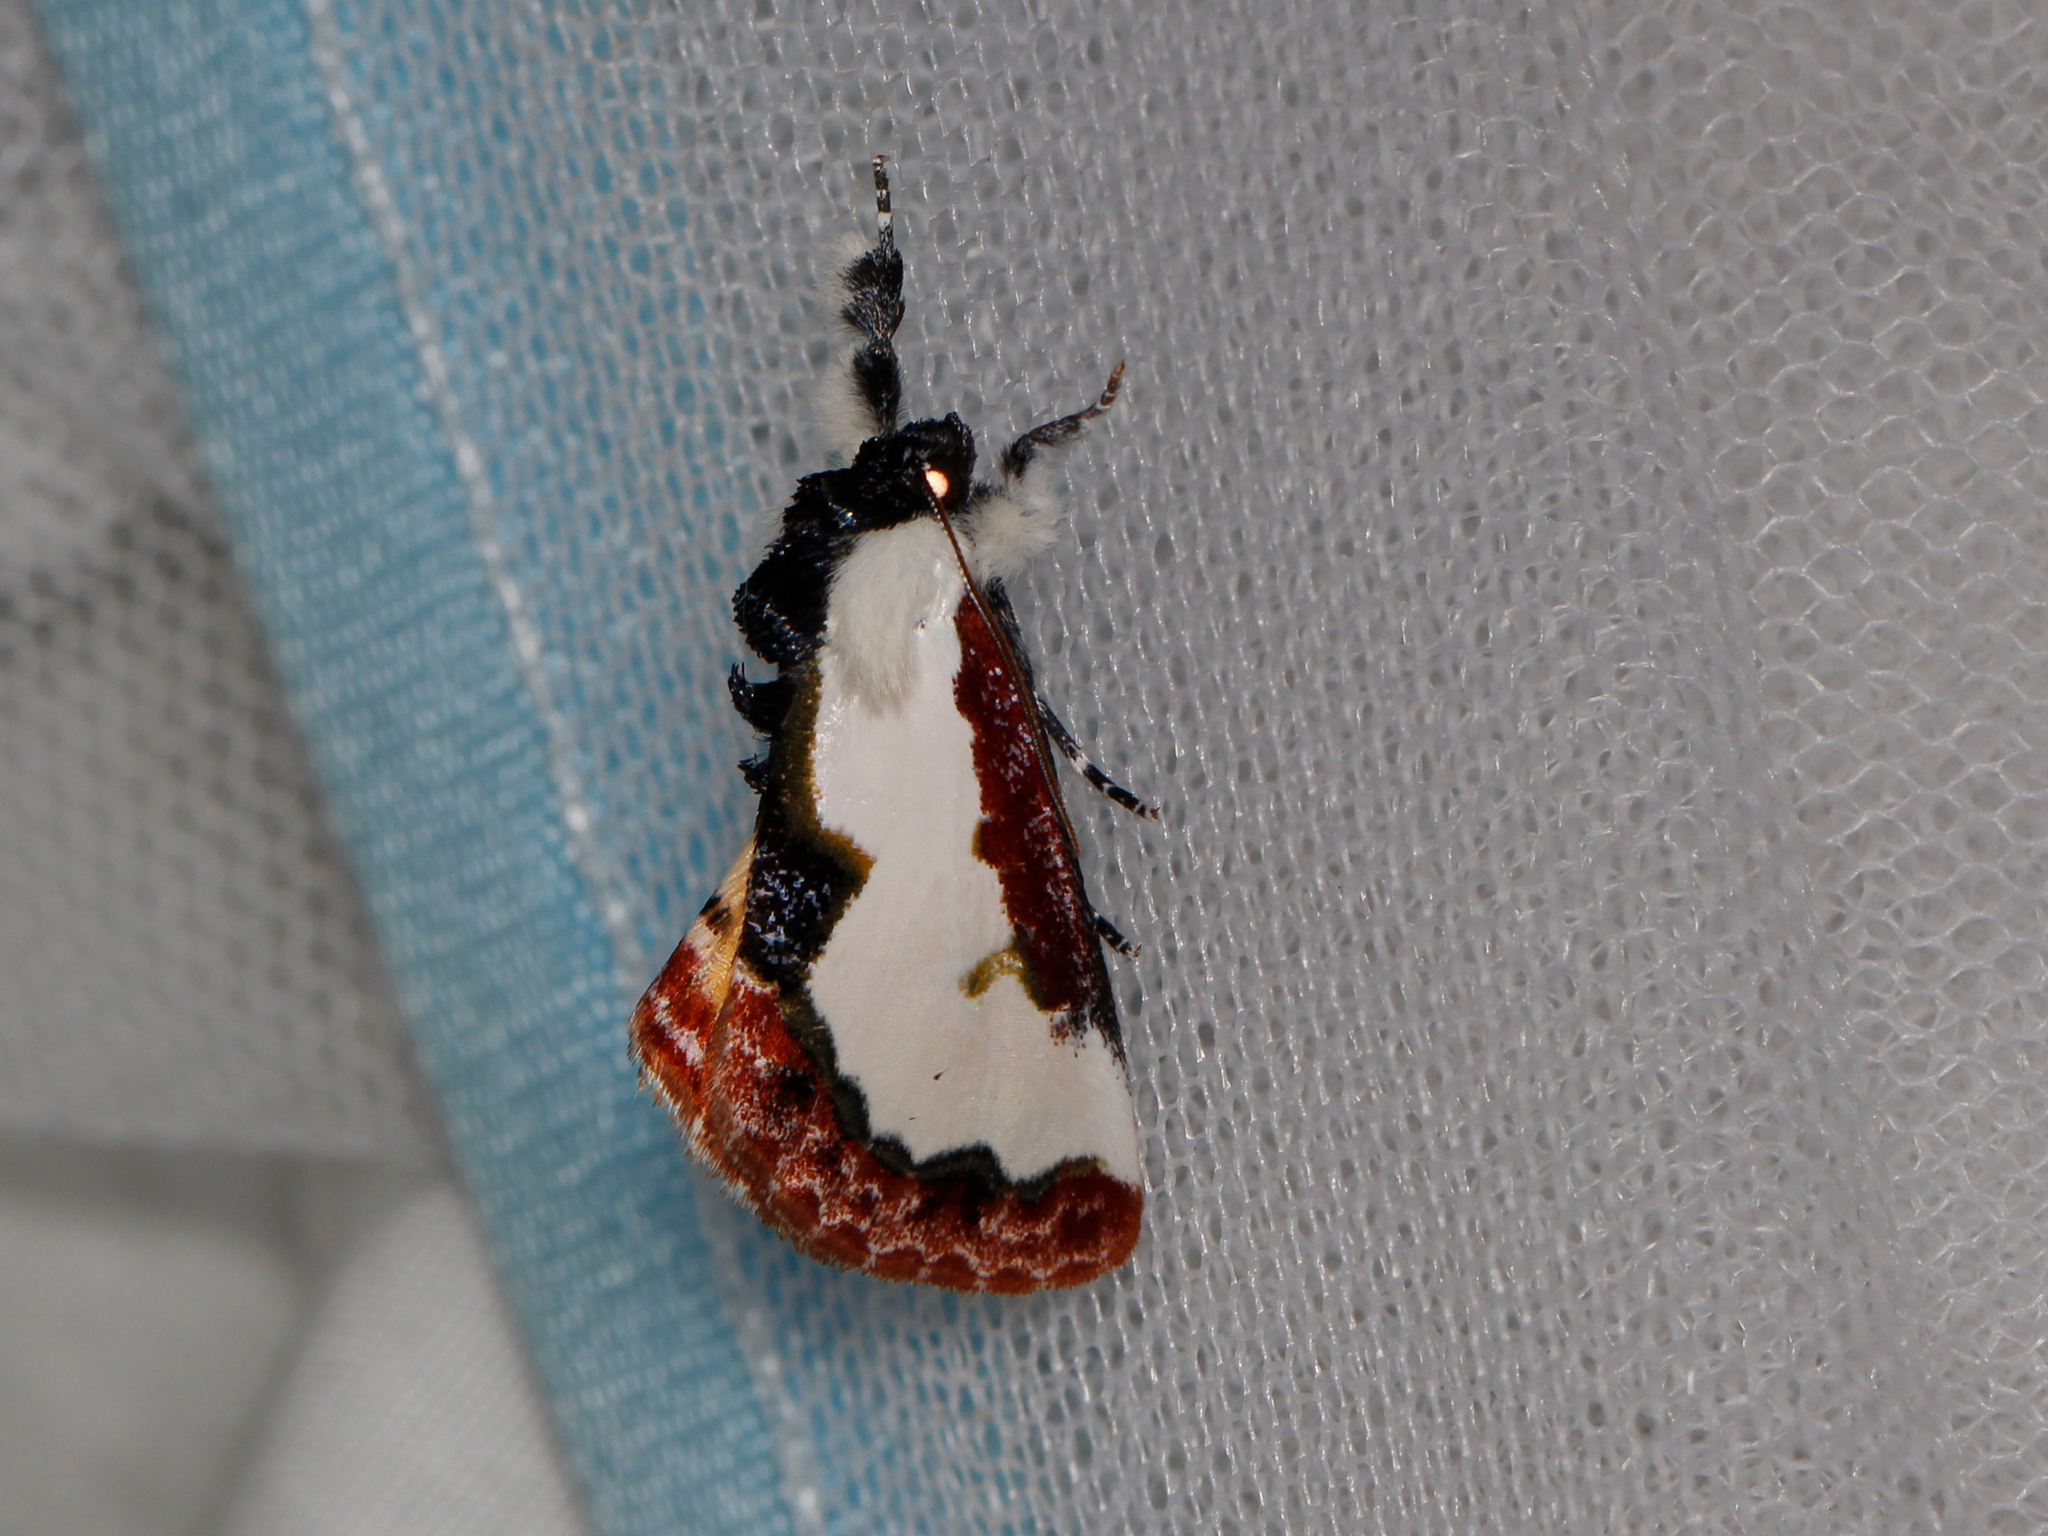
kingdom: Animalia
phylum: Arthropoda
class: Insecta
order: Lepidoptera
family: Noctuidae
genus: Eudryas
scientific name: Eudryas unio
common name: Pearly wood-nymph
